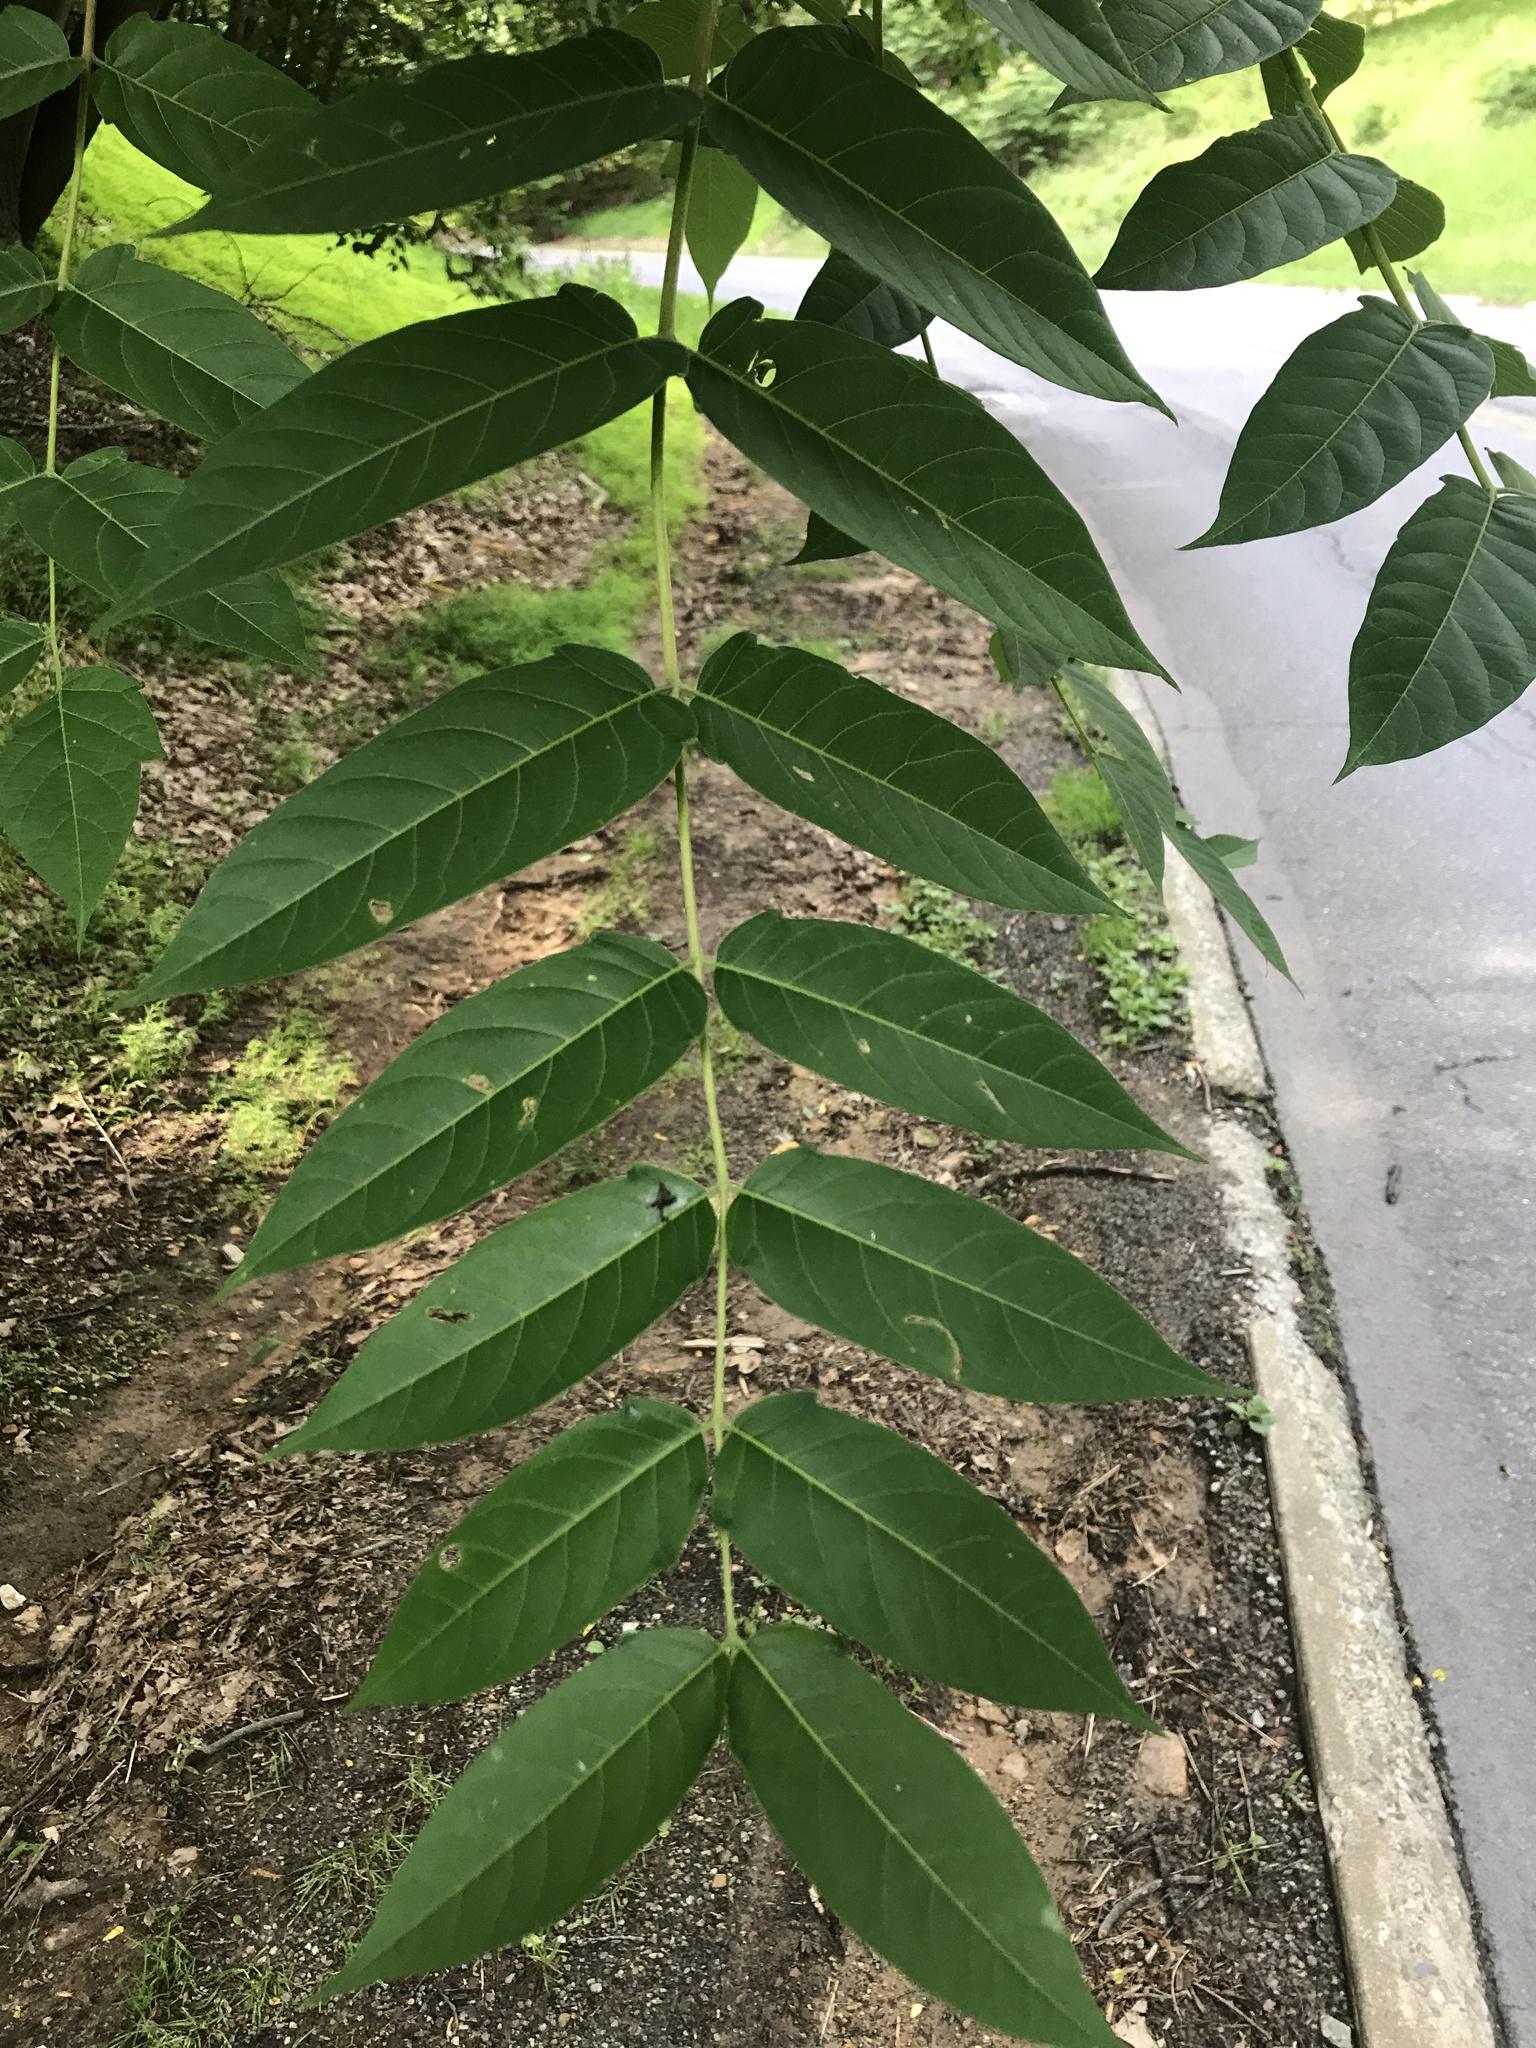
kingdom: Plantae
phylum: Tracheophyta
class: Magnoliopsida
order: Sapindales
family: Simaroubaceae
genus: Ailanthus
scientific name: Ailanthus altissima
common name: Tree-of-heaven
